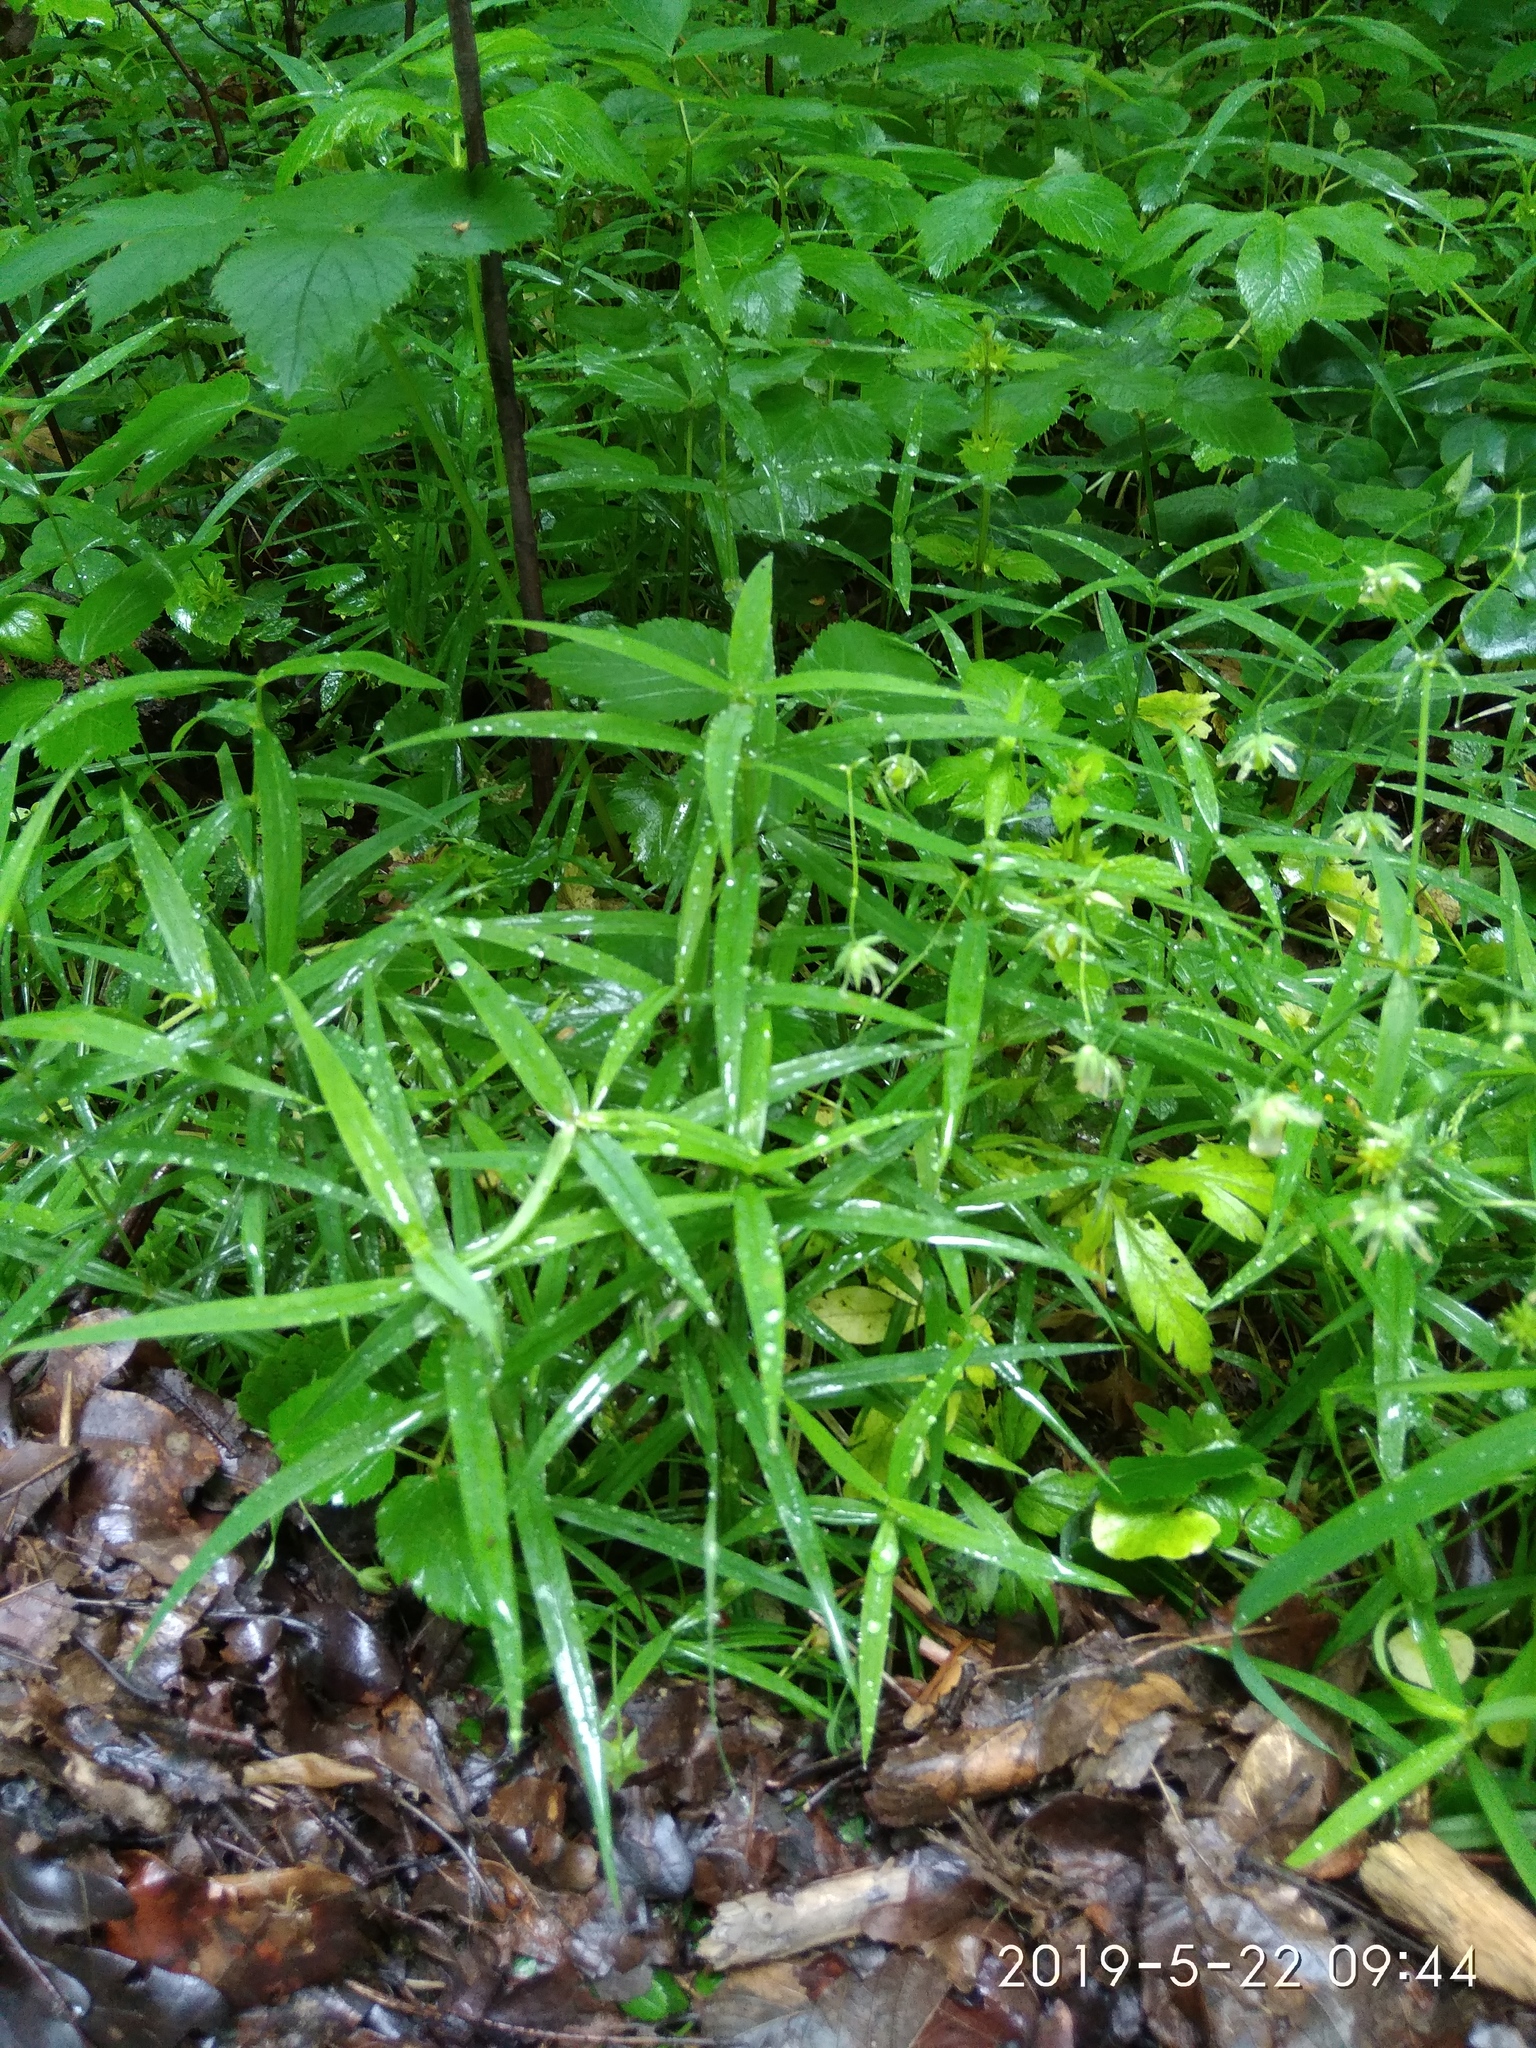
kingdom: Plantae
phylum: Tracheophyta
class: Magnoliopsida
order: Caryophyllales
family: Caryophyllaceae
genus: Rabelera
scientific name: Rabelera holostea
